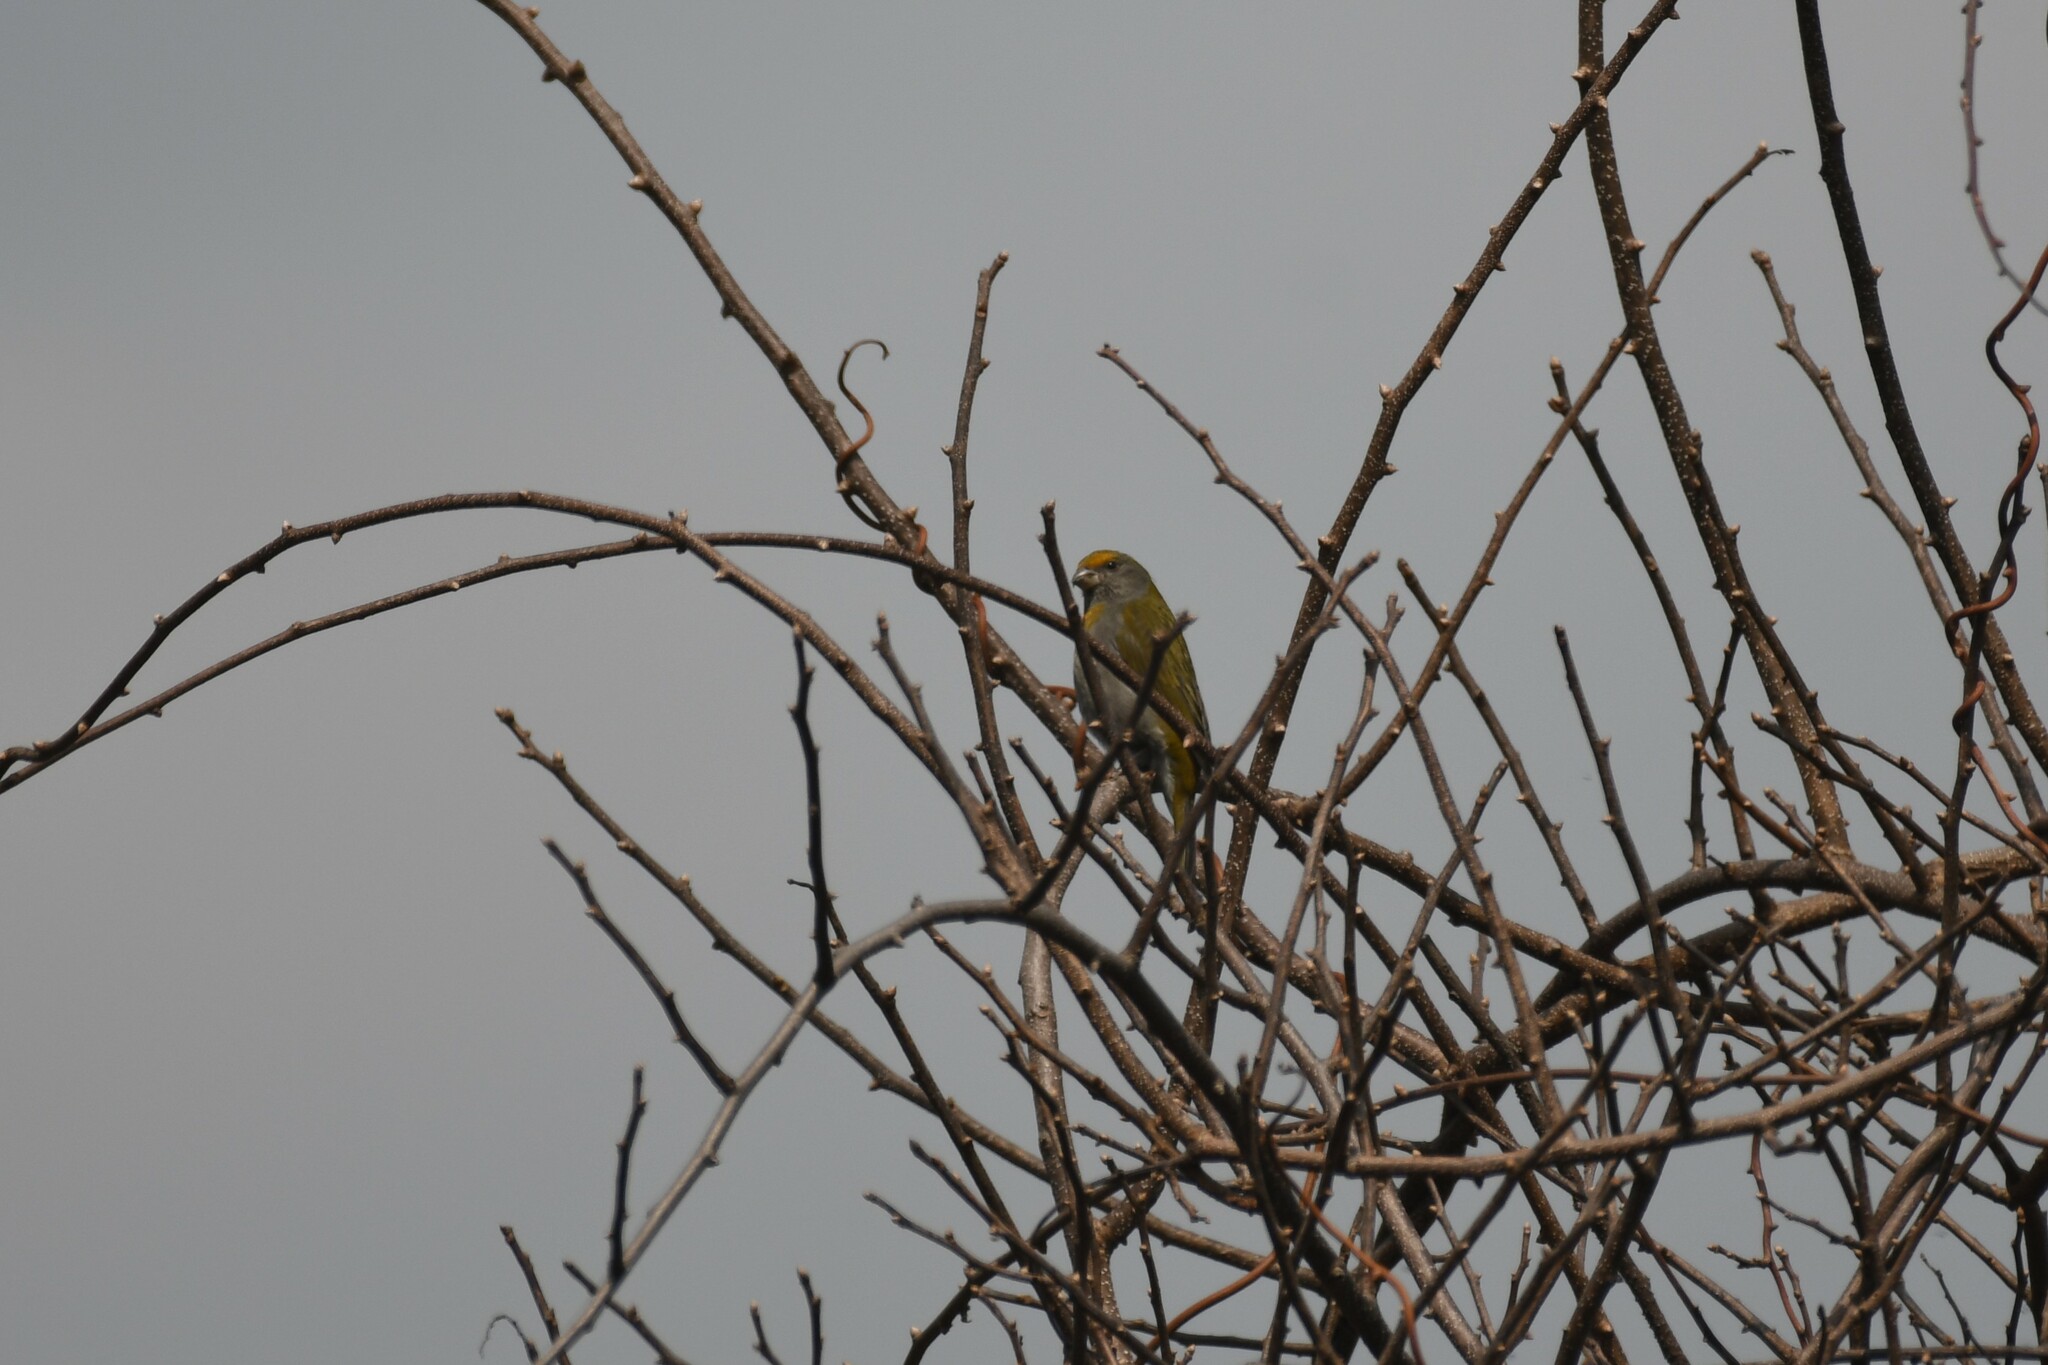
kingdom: Animalia
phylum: Chordata
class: Aves
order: Passeriformes
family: Fringillidae
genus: Carpodacus
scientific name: Carpodacus subhimachalus
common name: Crimson-browed finch
